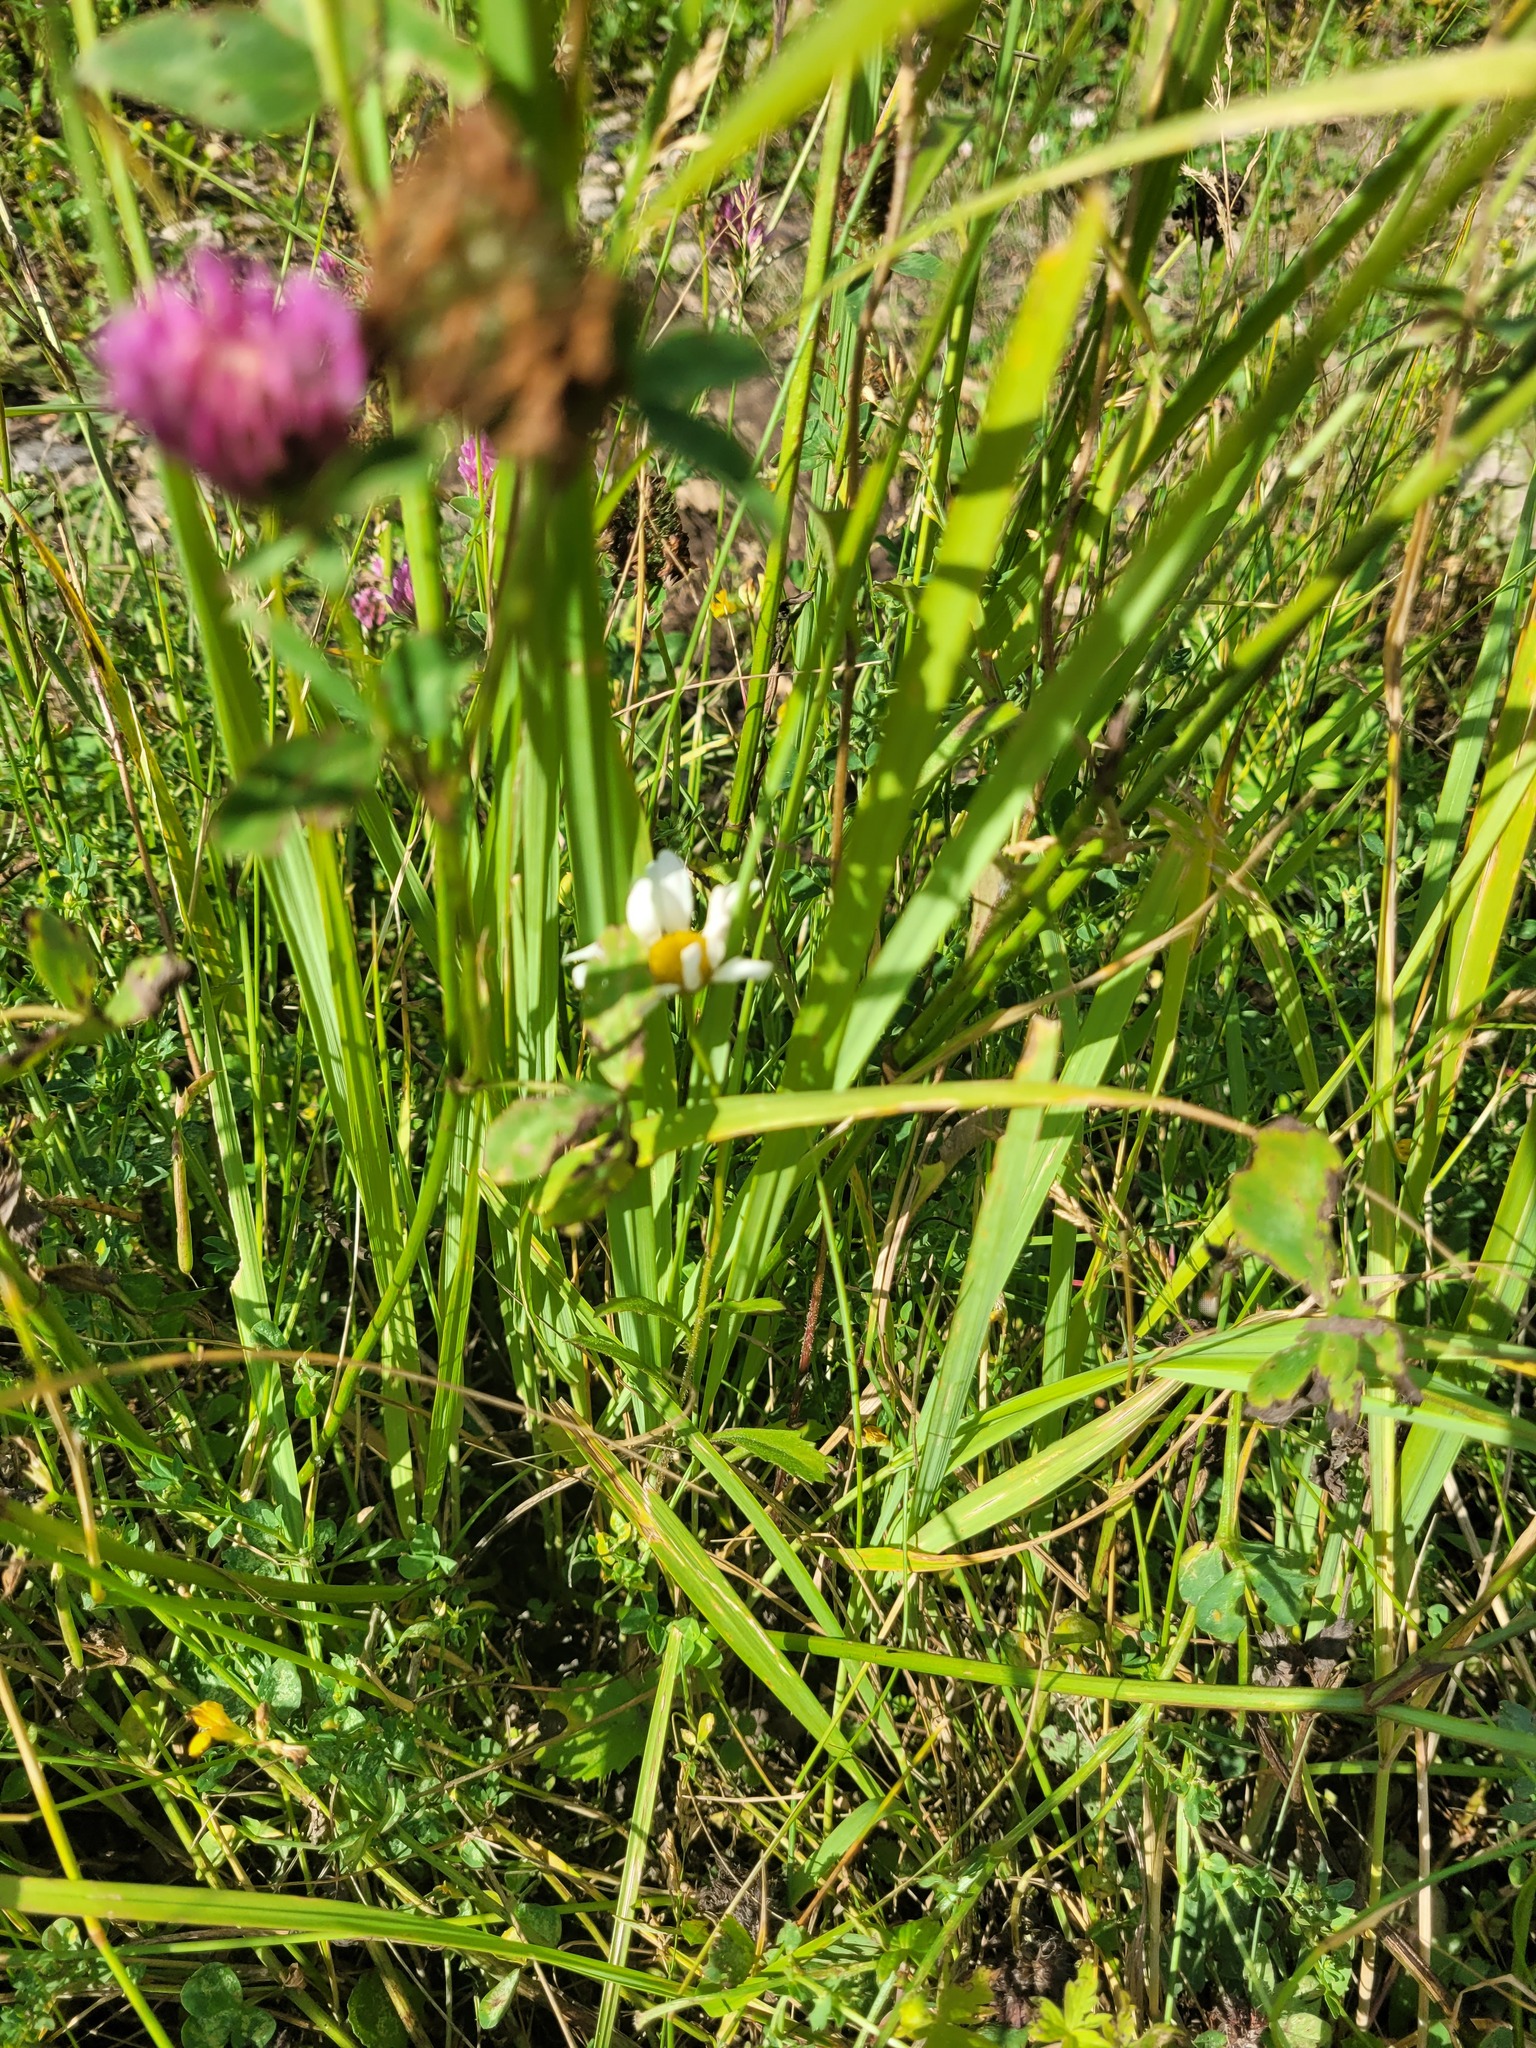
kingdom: Plantae
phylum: Tracheophyta
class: Magnoliopsida
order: Asterales
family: Asteraceae
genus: Leucanthemum
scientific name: Leucanthemum vulgare
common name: Oxeye daisy
